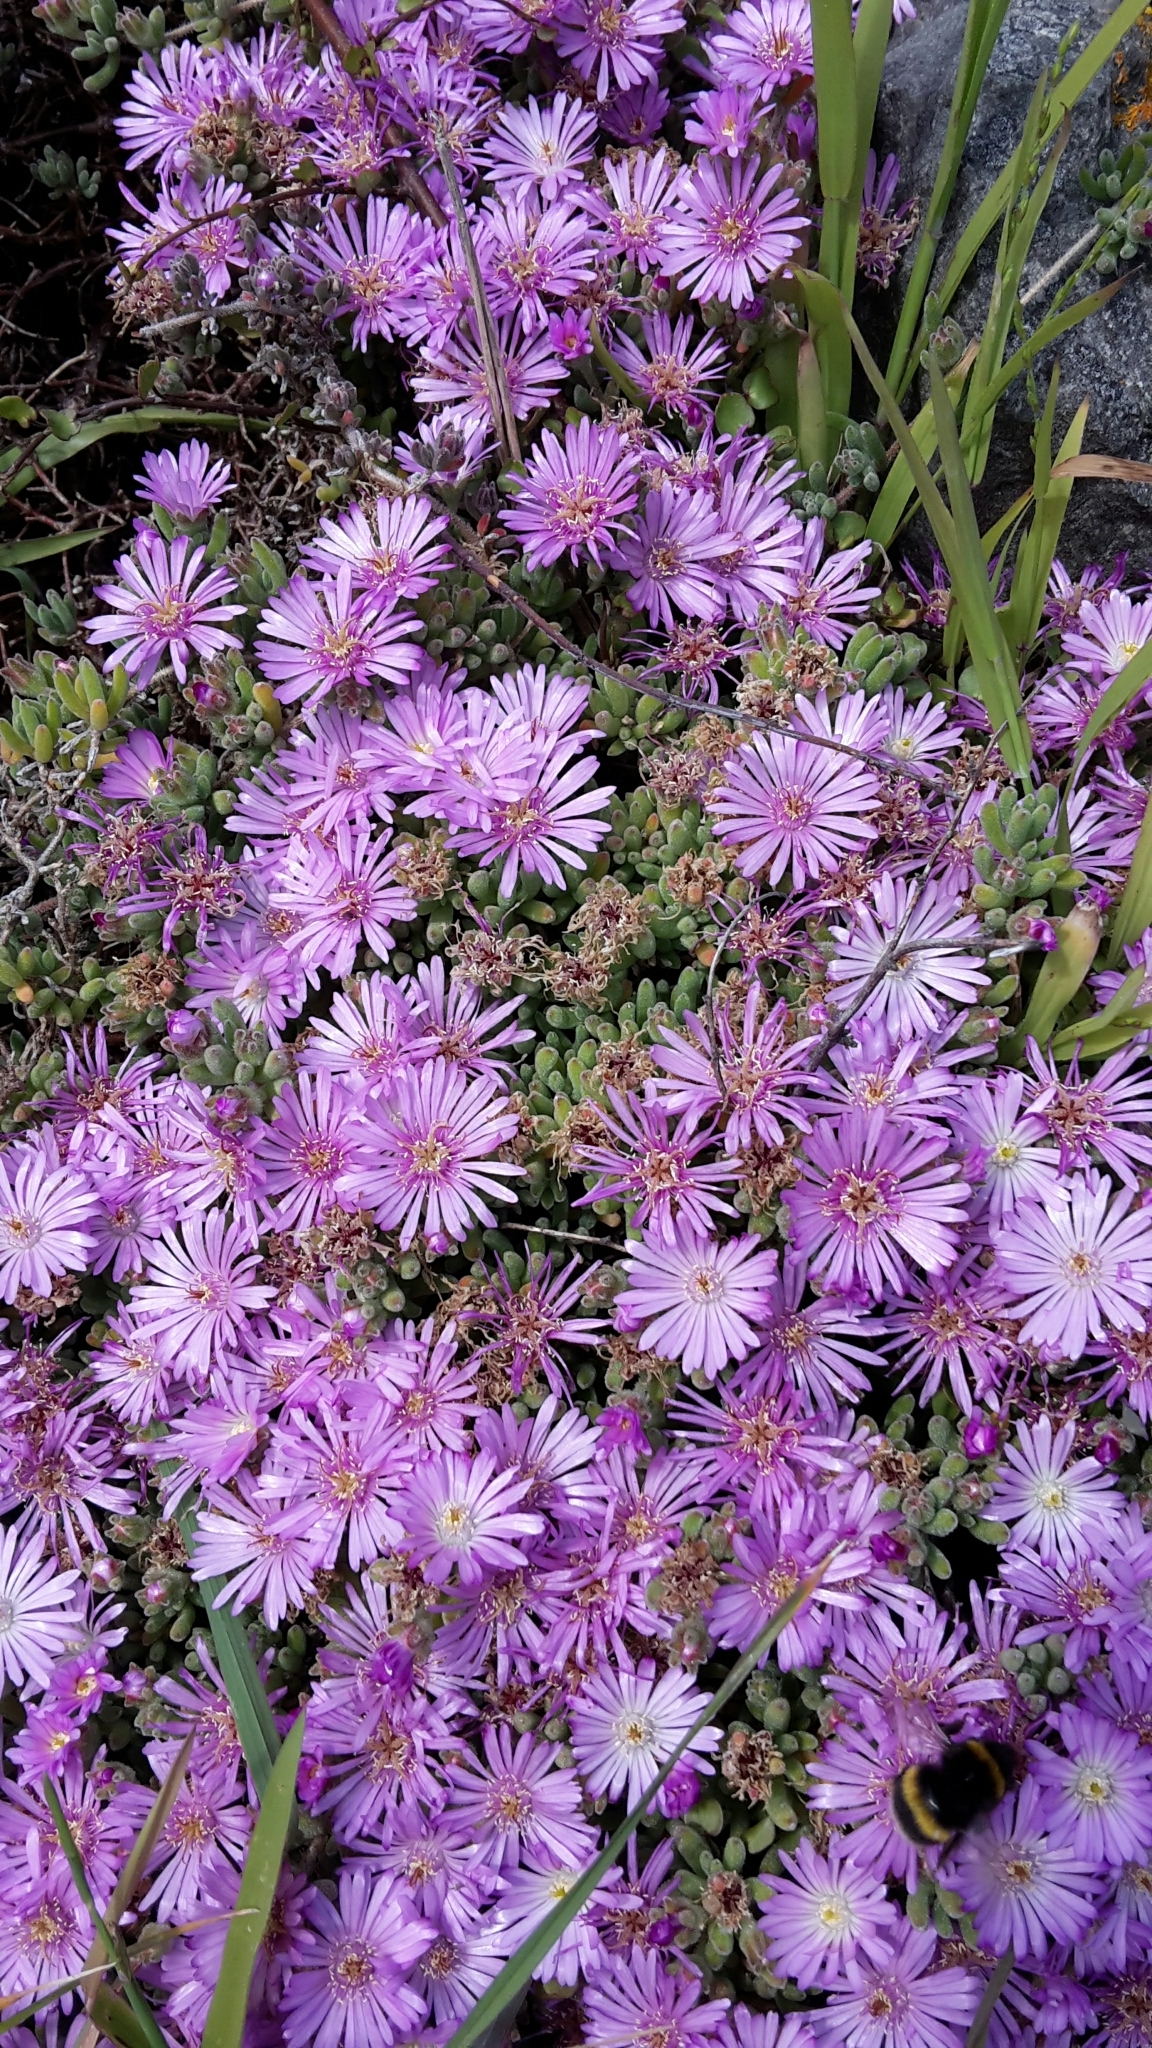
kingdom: Plantae
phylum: Tracheophyta
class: Magnoliopsida
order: Caryophyllales
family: Aizoaceae
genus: Drosanthemum
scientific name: Drosanthemum floribundum
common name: Pale dewplant
